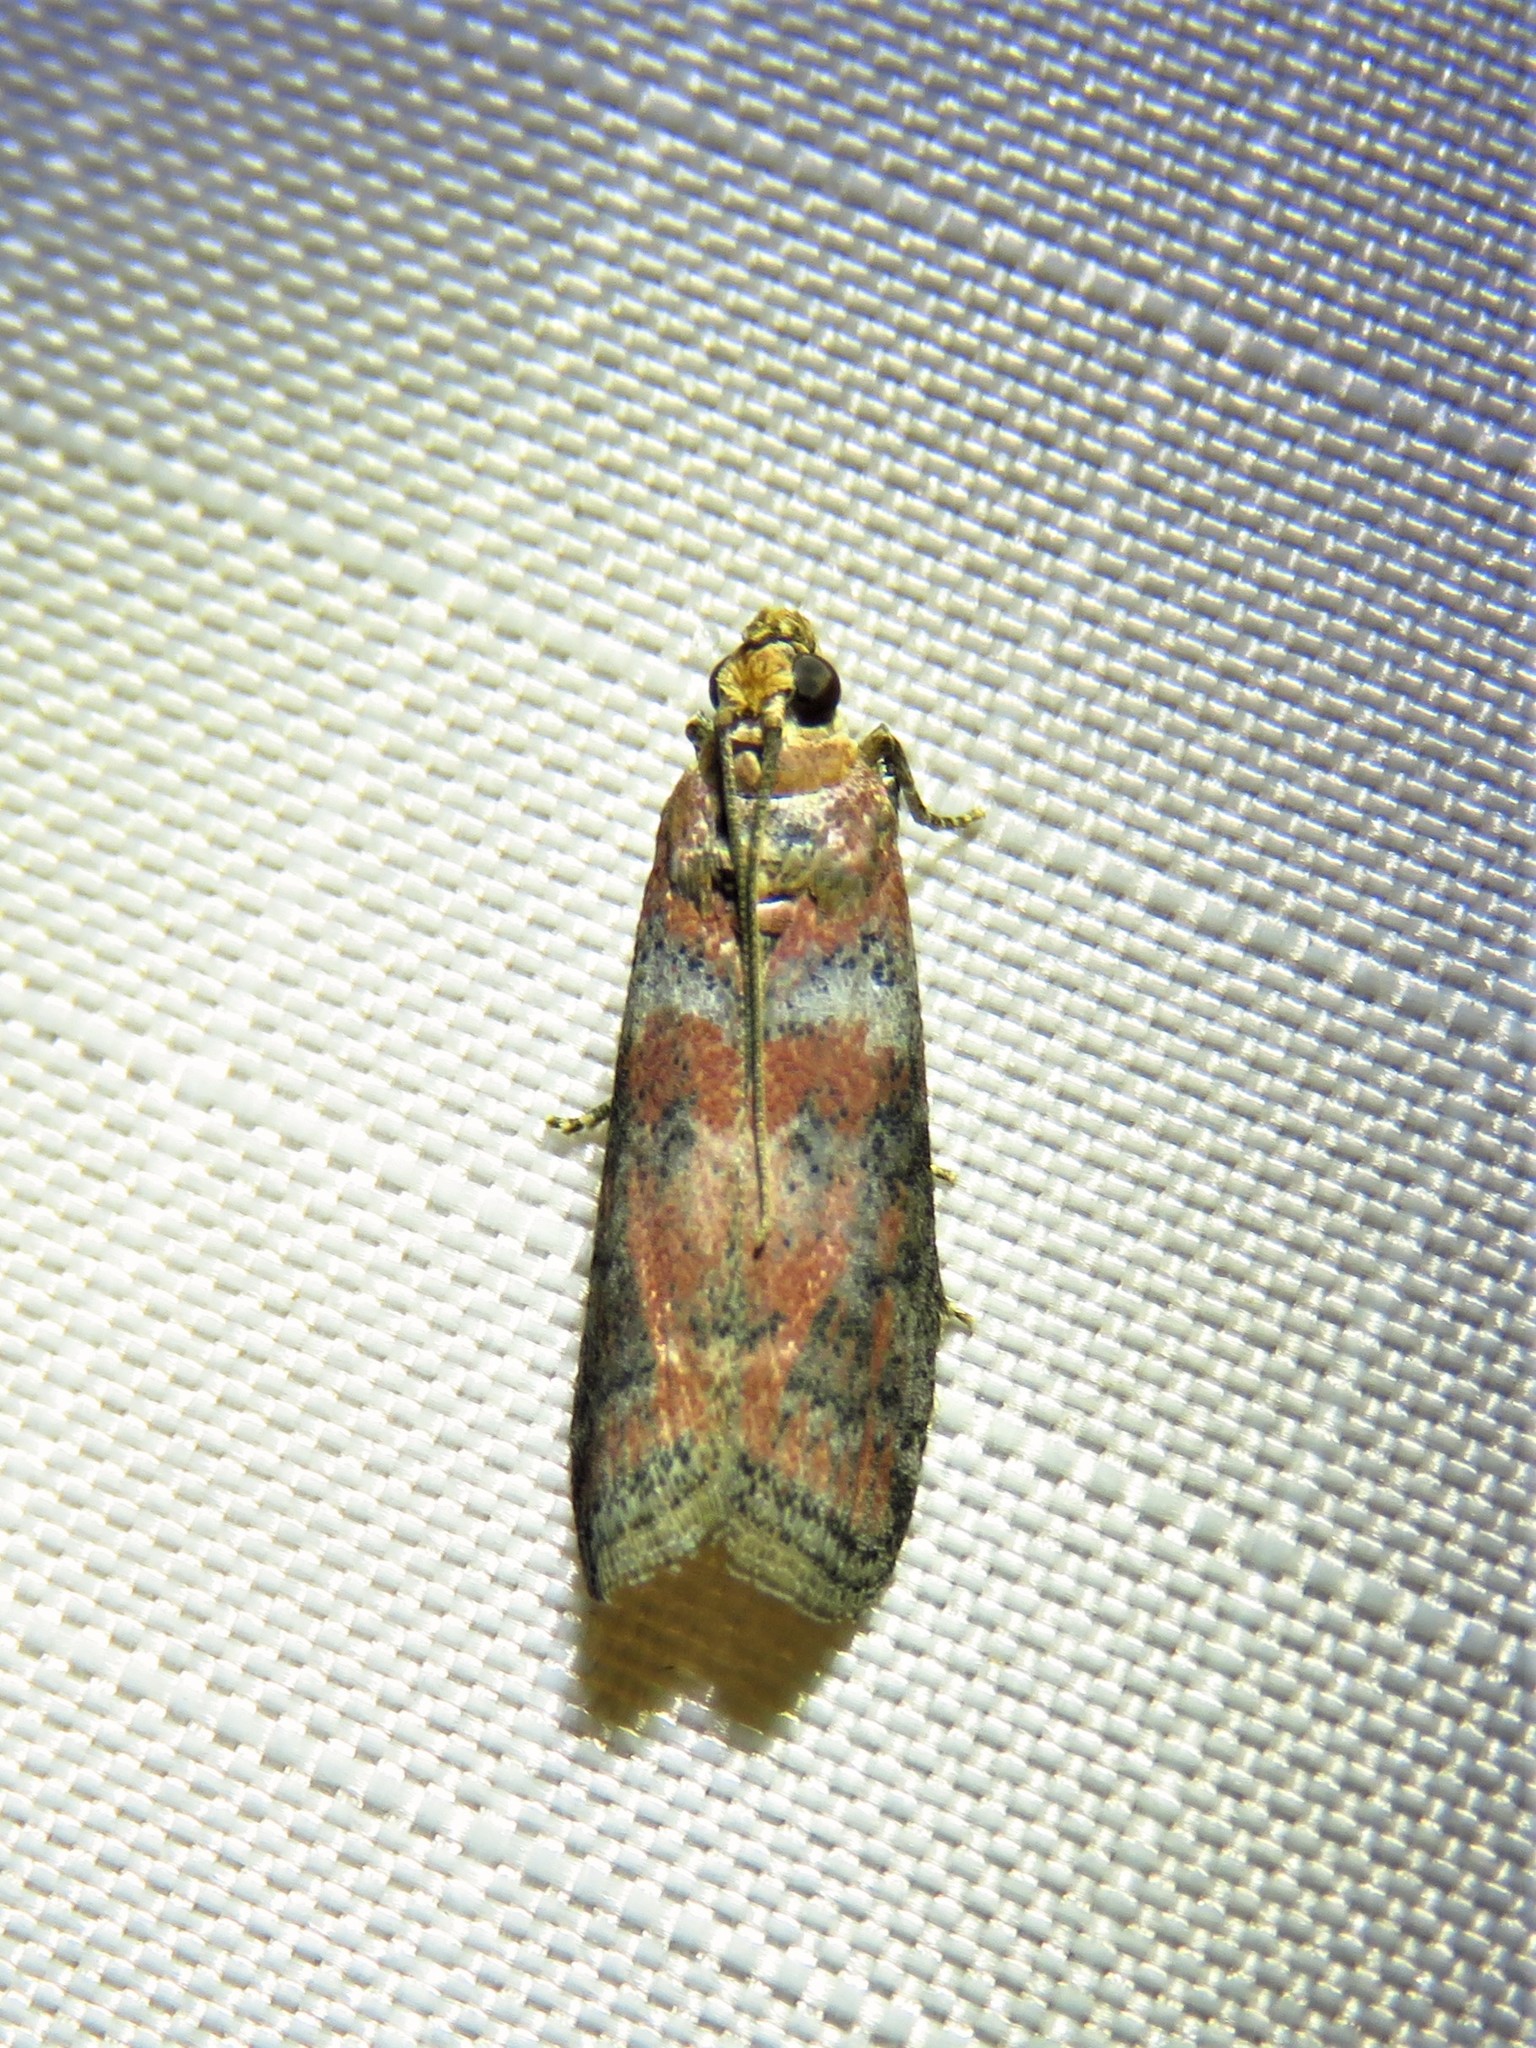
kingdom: Animalia
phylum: Arthropoda
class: Insecta
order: Lepidoptera
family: Pyralidae
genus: Sciota
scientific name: Sciota
